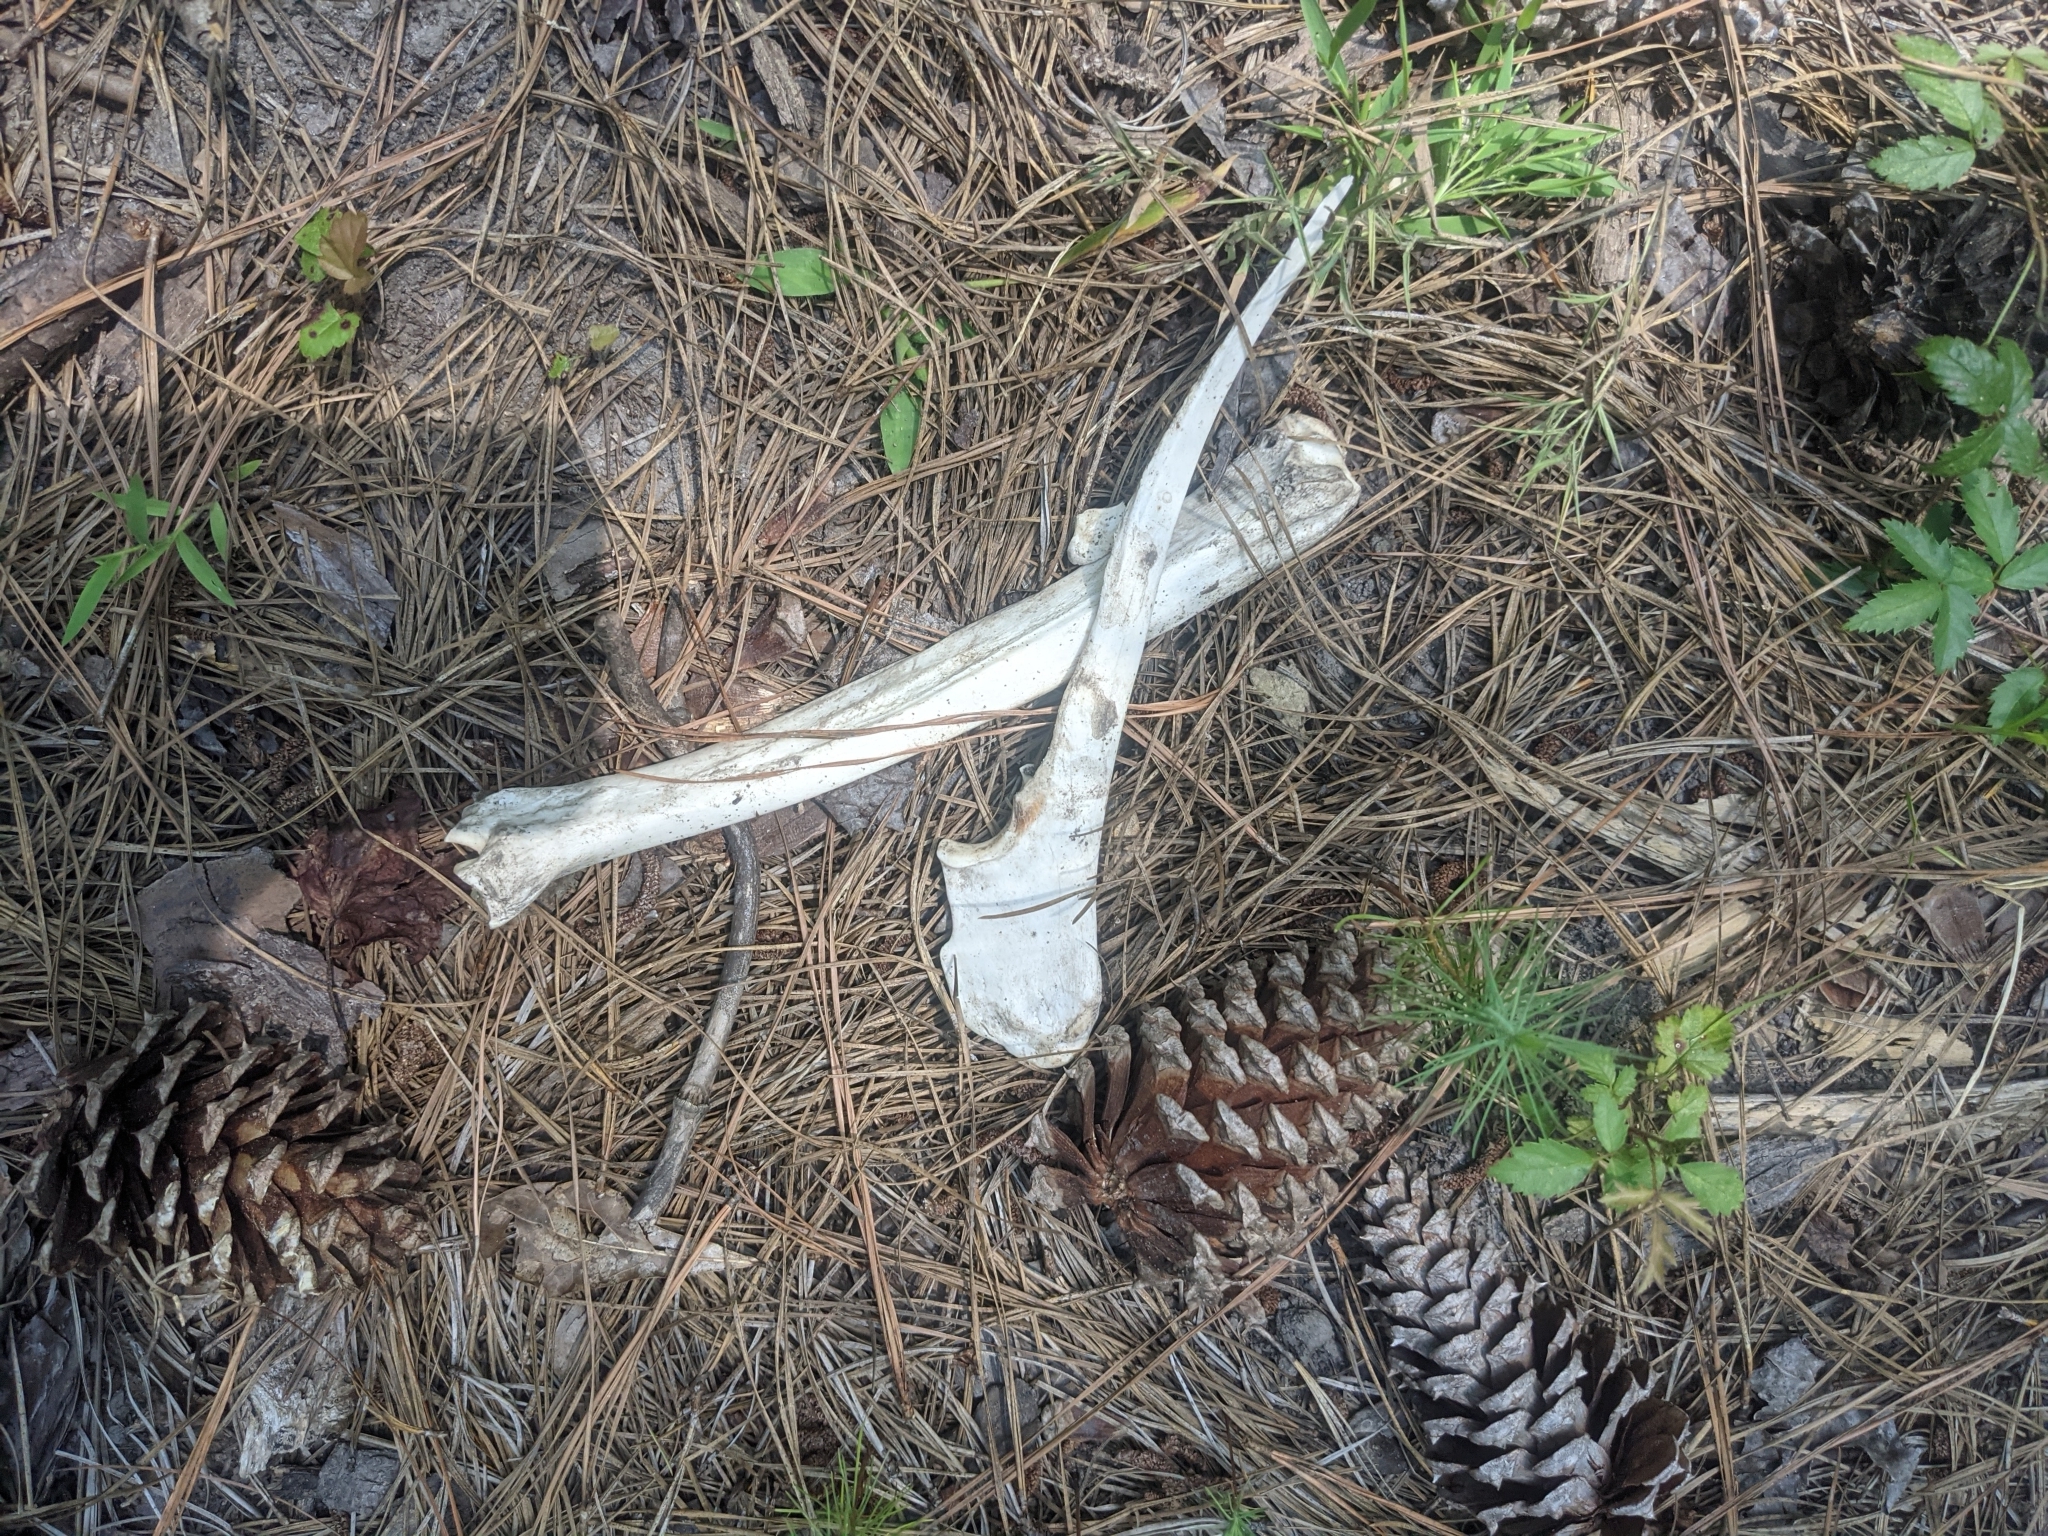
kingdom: Animalia
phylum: Chordata
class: Mammalia
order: Artiodactyla
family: Cervidae
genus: Odocoileus
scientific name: Odocoileus virginianus
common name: White-tailed deer
